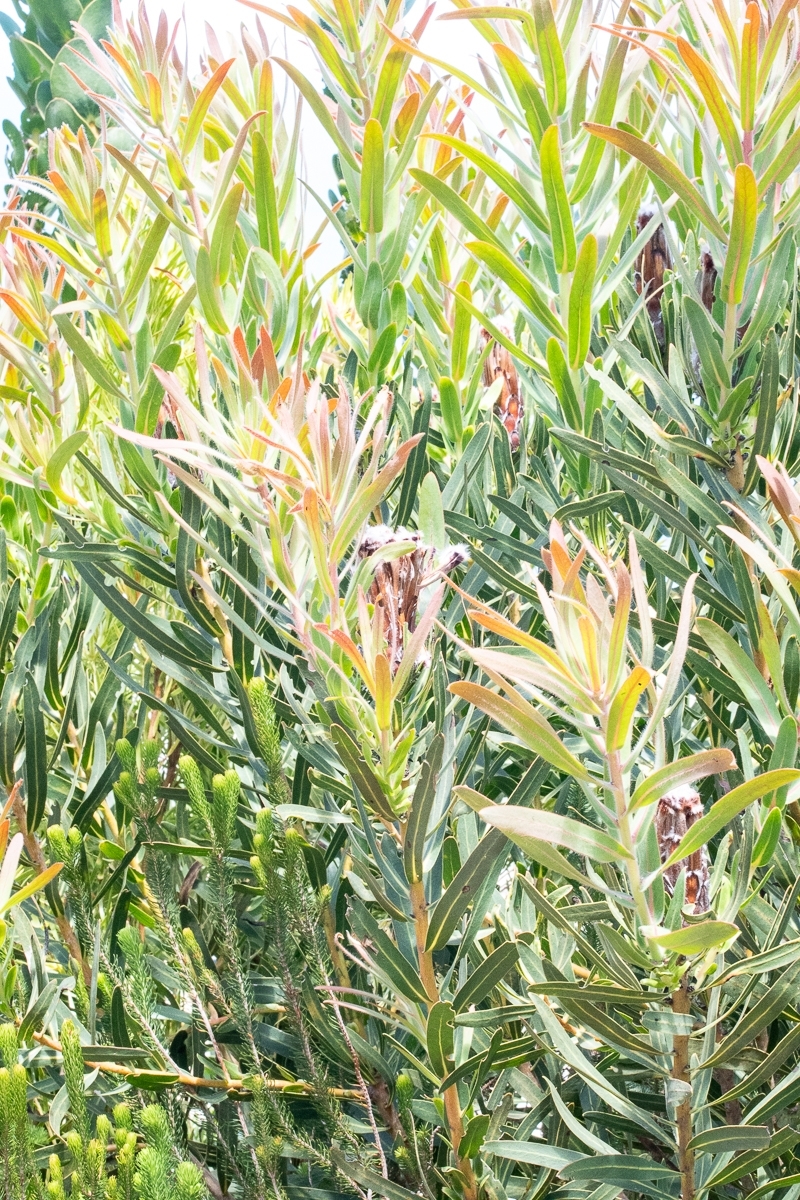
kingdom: Plantae
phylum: Tracheophyta
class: Magnoliopsida
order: Proteales
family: Proteaceae
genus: Protea
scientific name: Protea lepidocarpodendron
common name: Black-bearded protea
